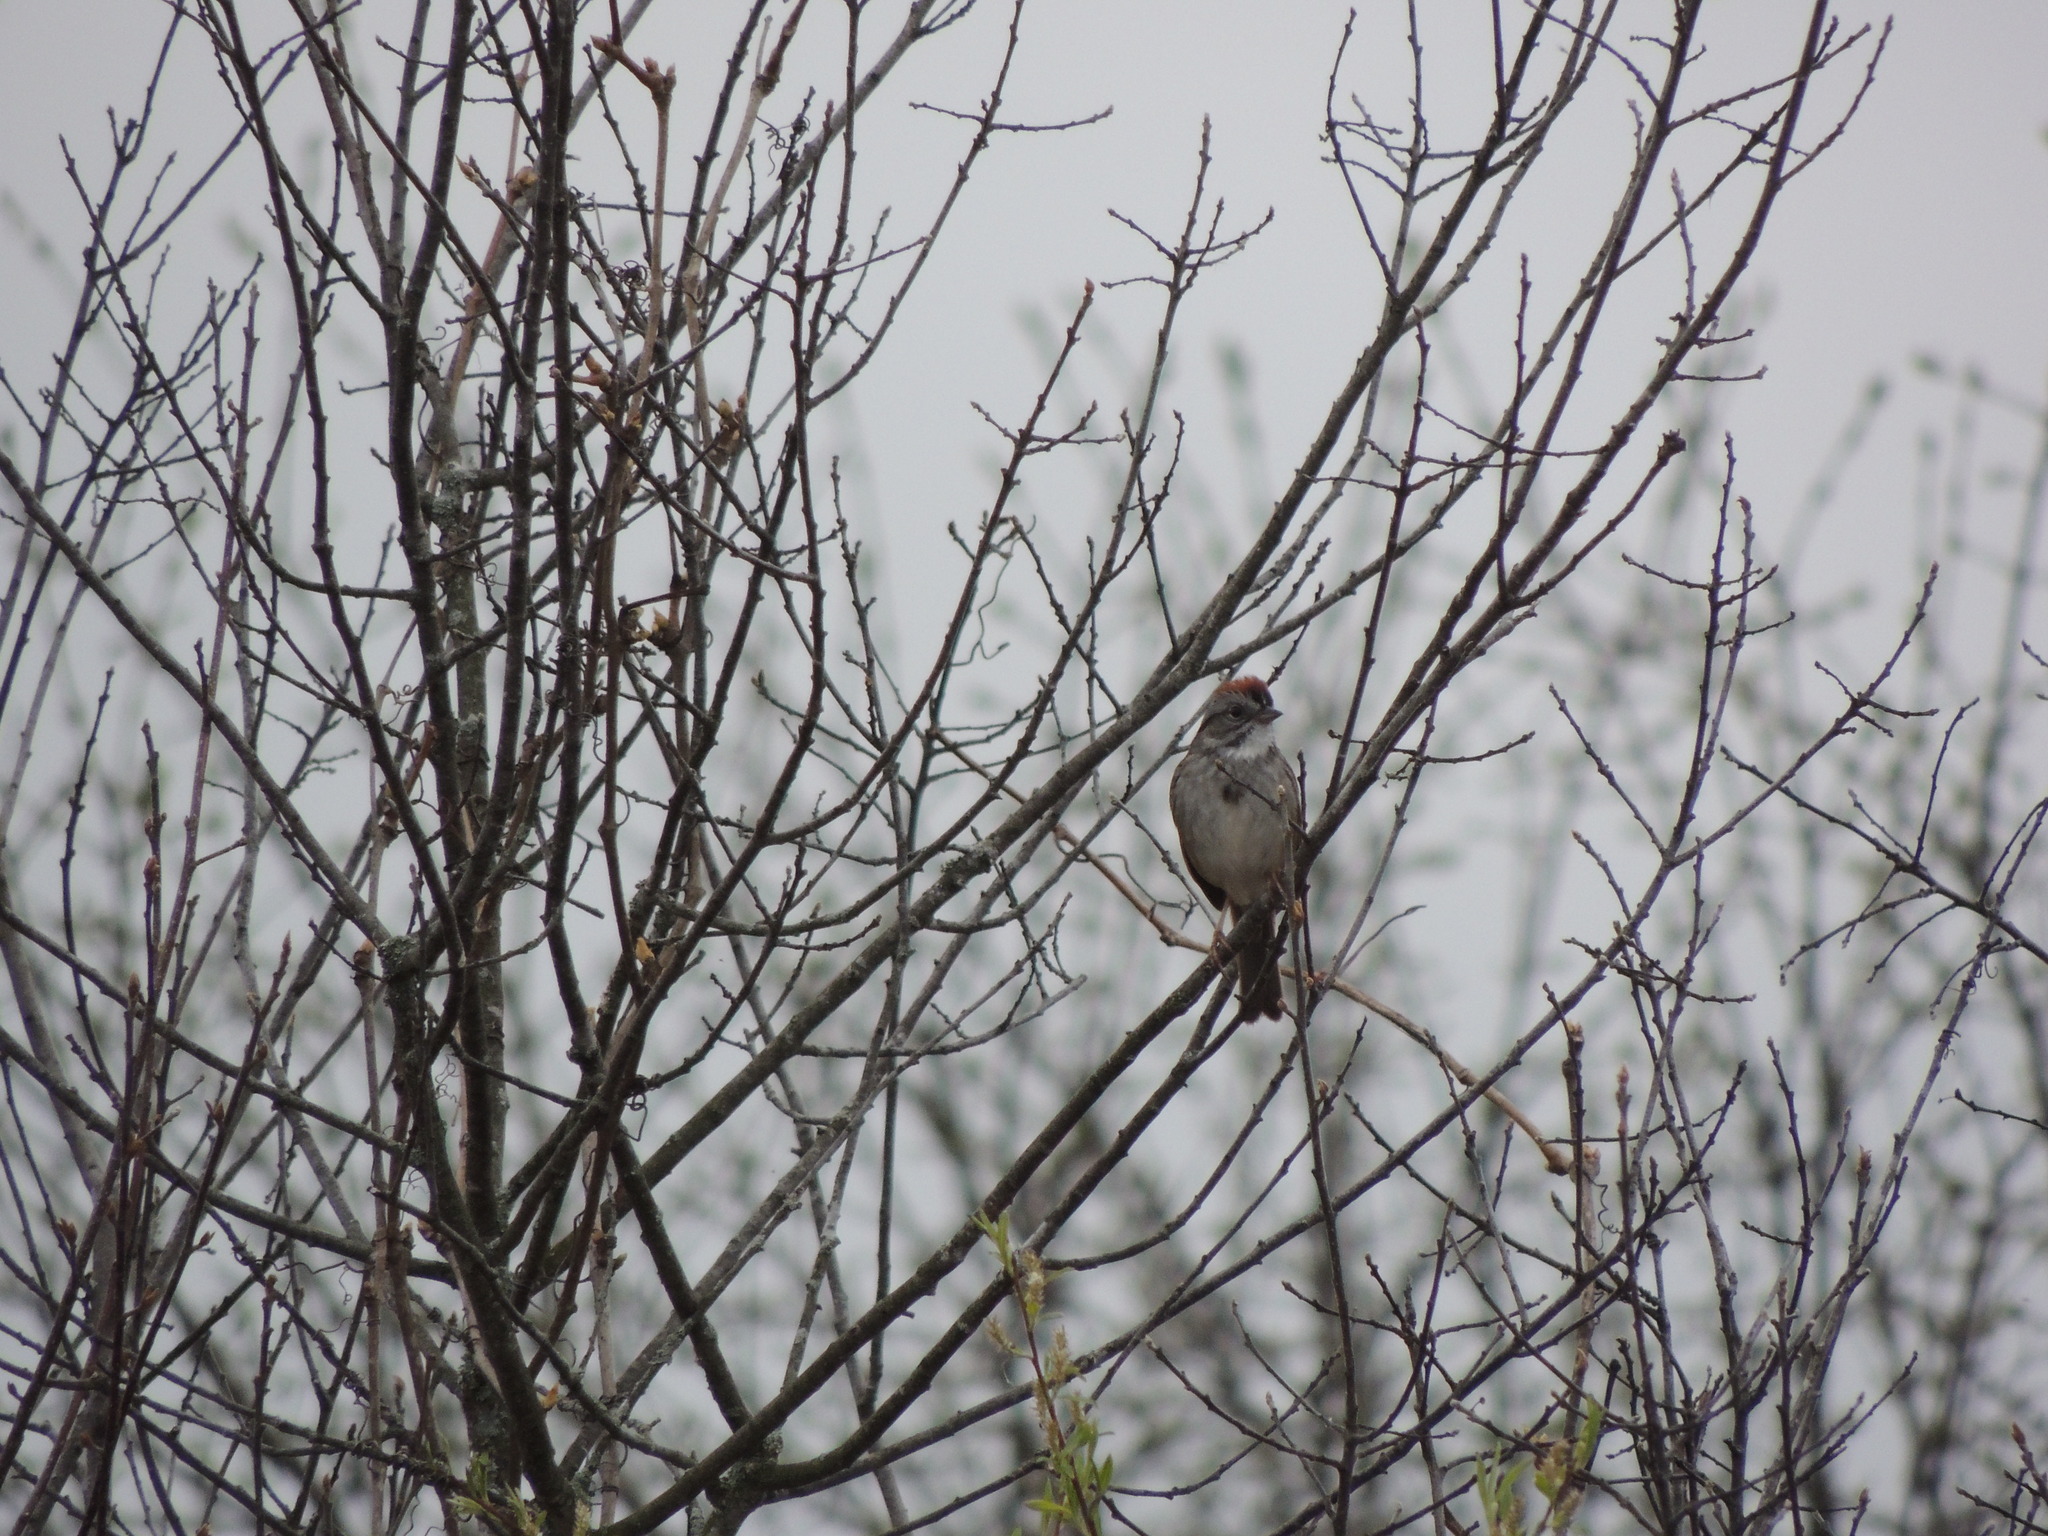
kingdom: Animalia
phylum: Chordata
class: Aves
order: Passeriformes
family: Passerellidae
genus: Melospiza
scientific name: Melospiza georgiana
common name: Swamp sparrow
